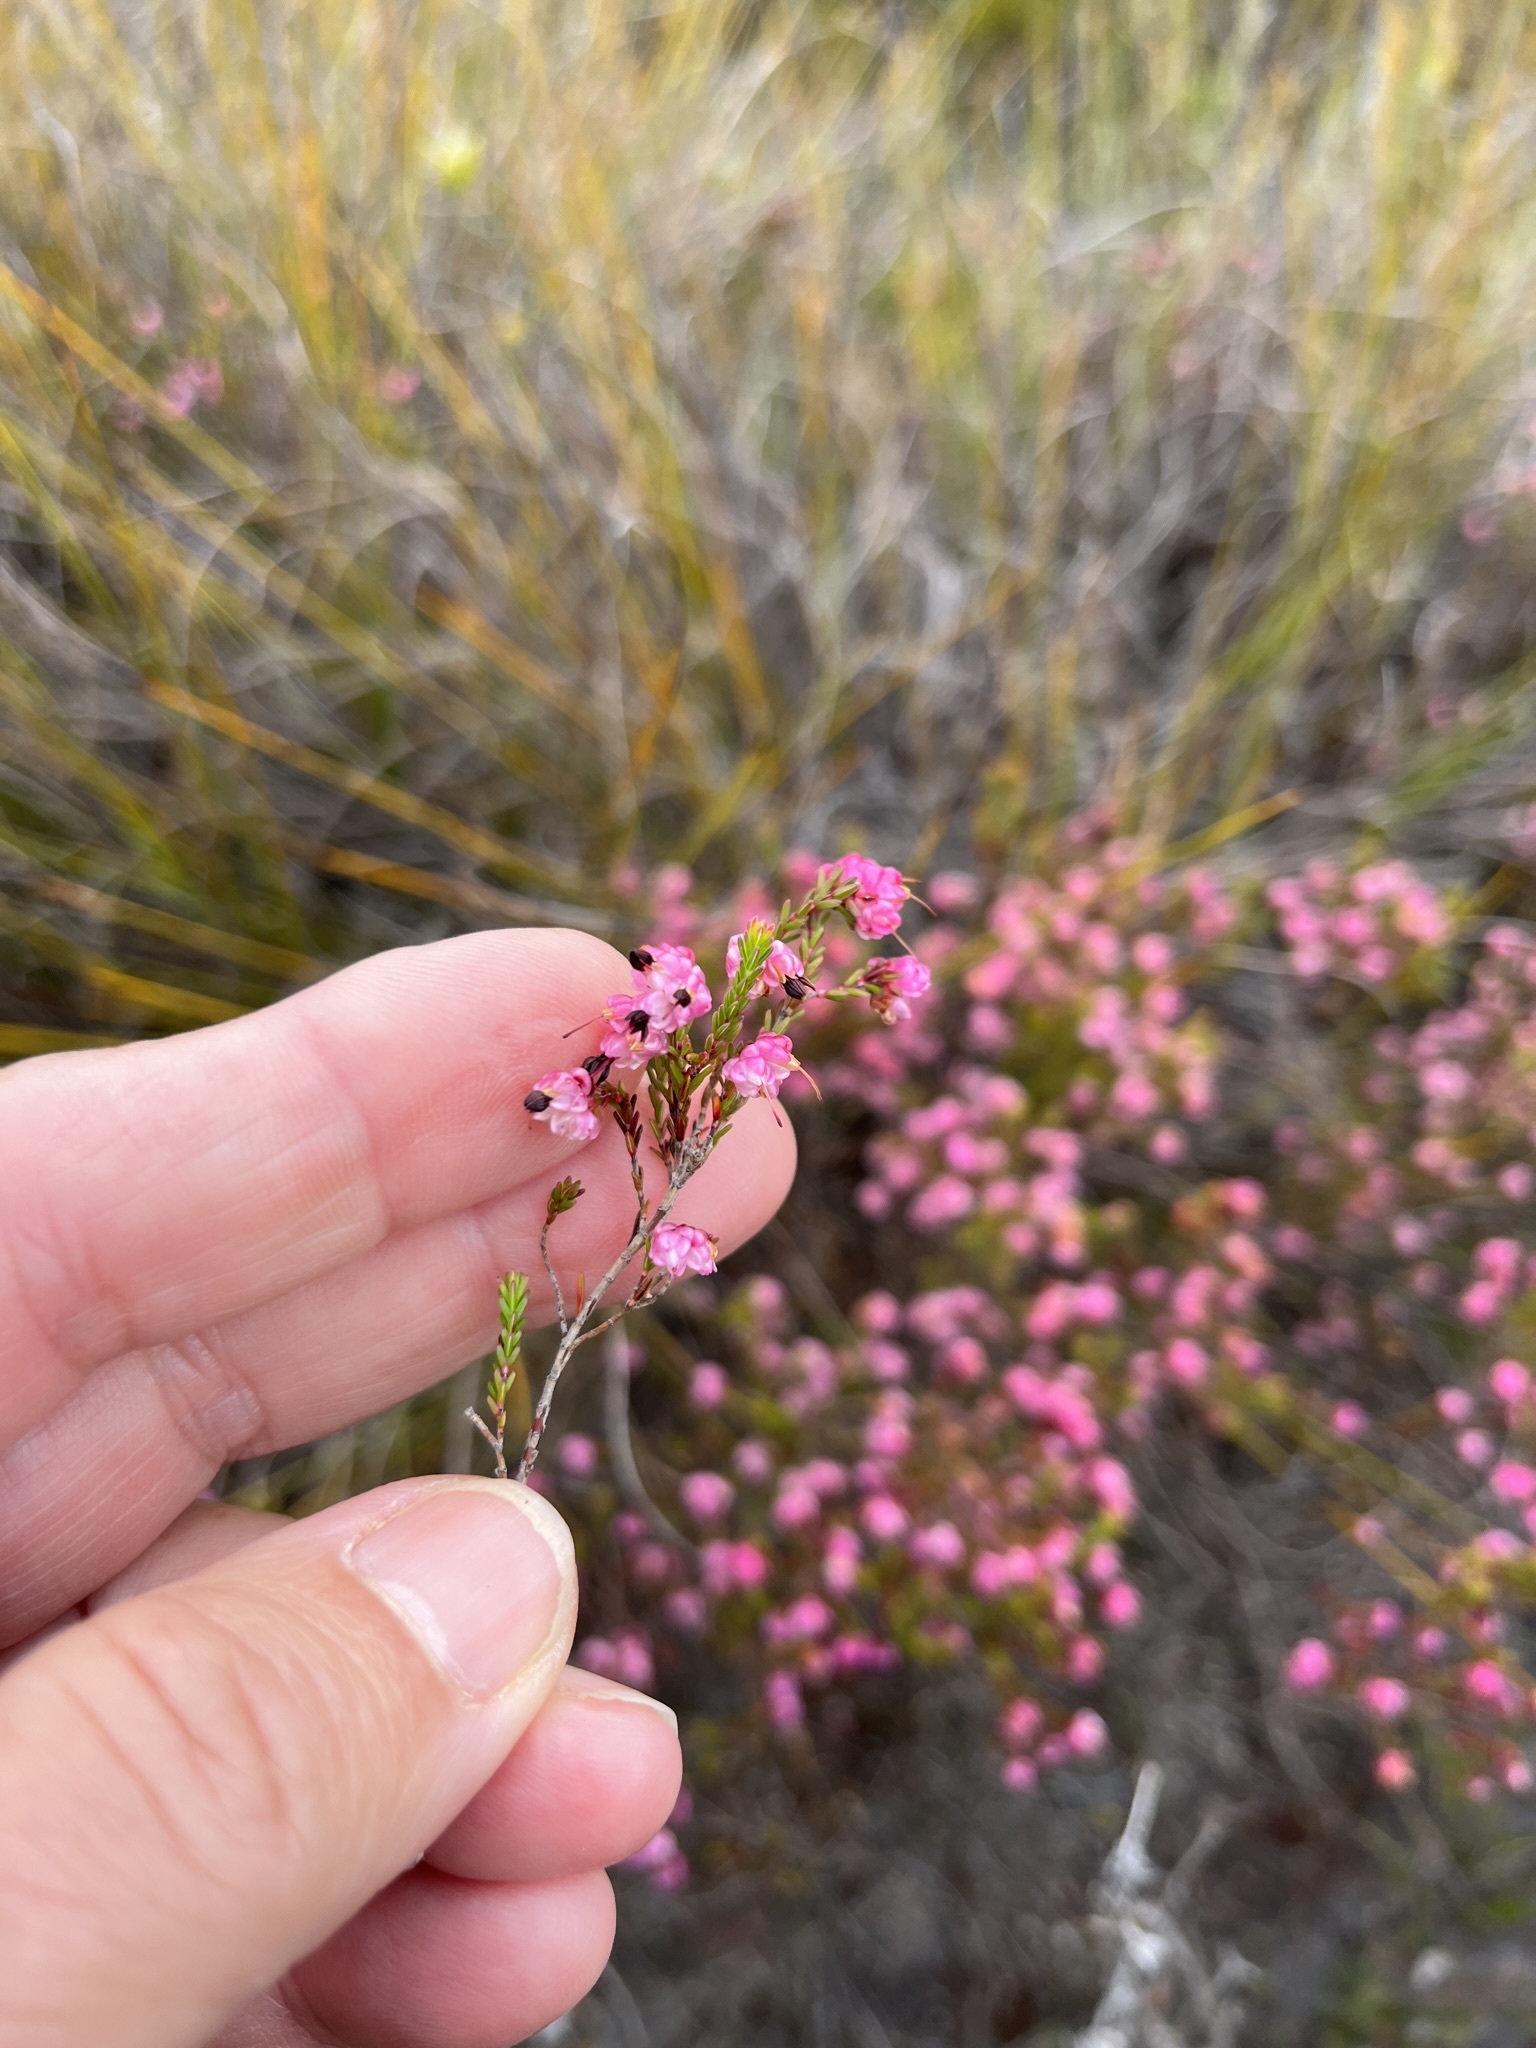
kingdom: Plantae
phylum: Tracheophyta
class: Magnoliopsida
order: Ericales
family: Ericaceae
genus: Erica
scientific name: Erica spumosa
